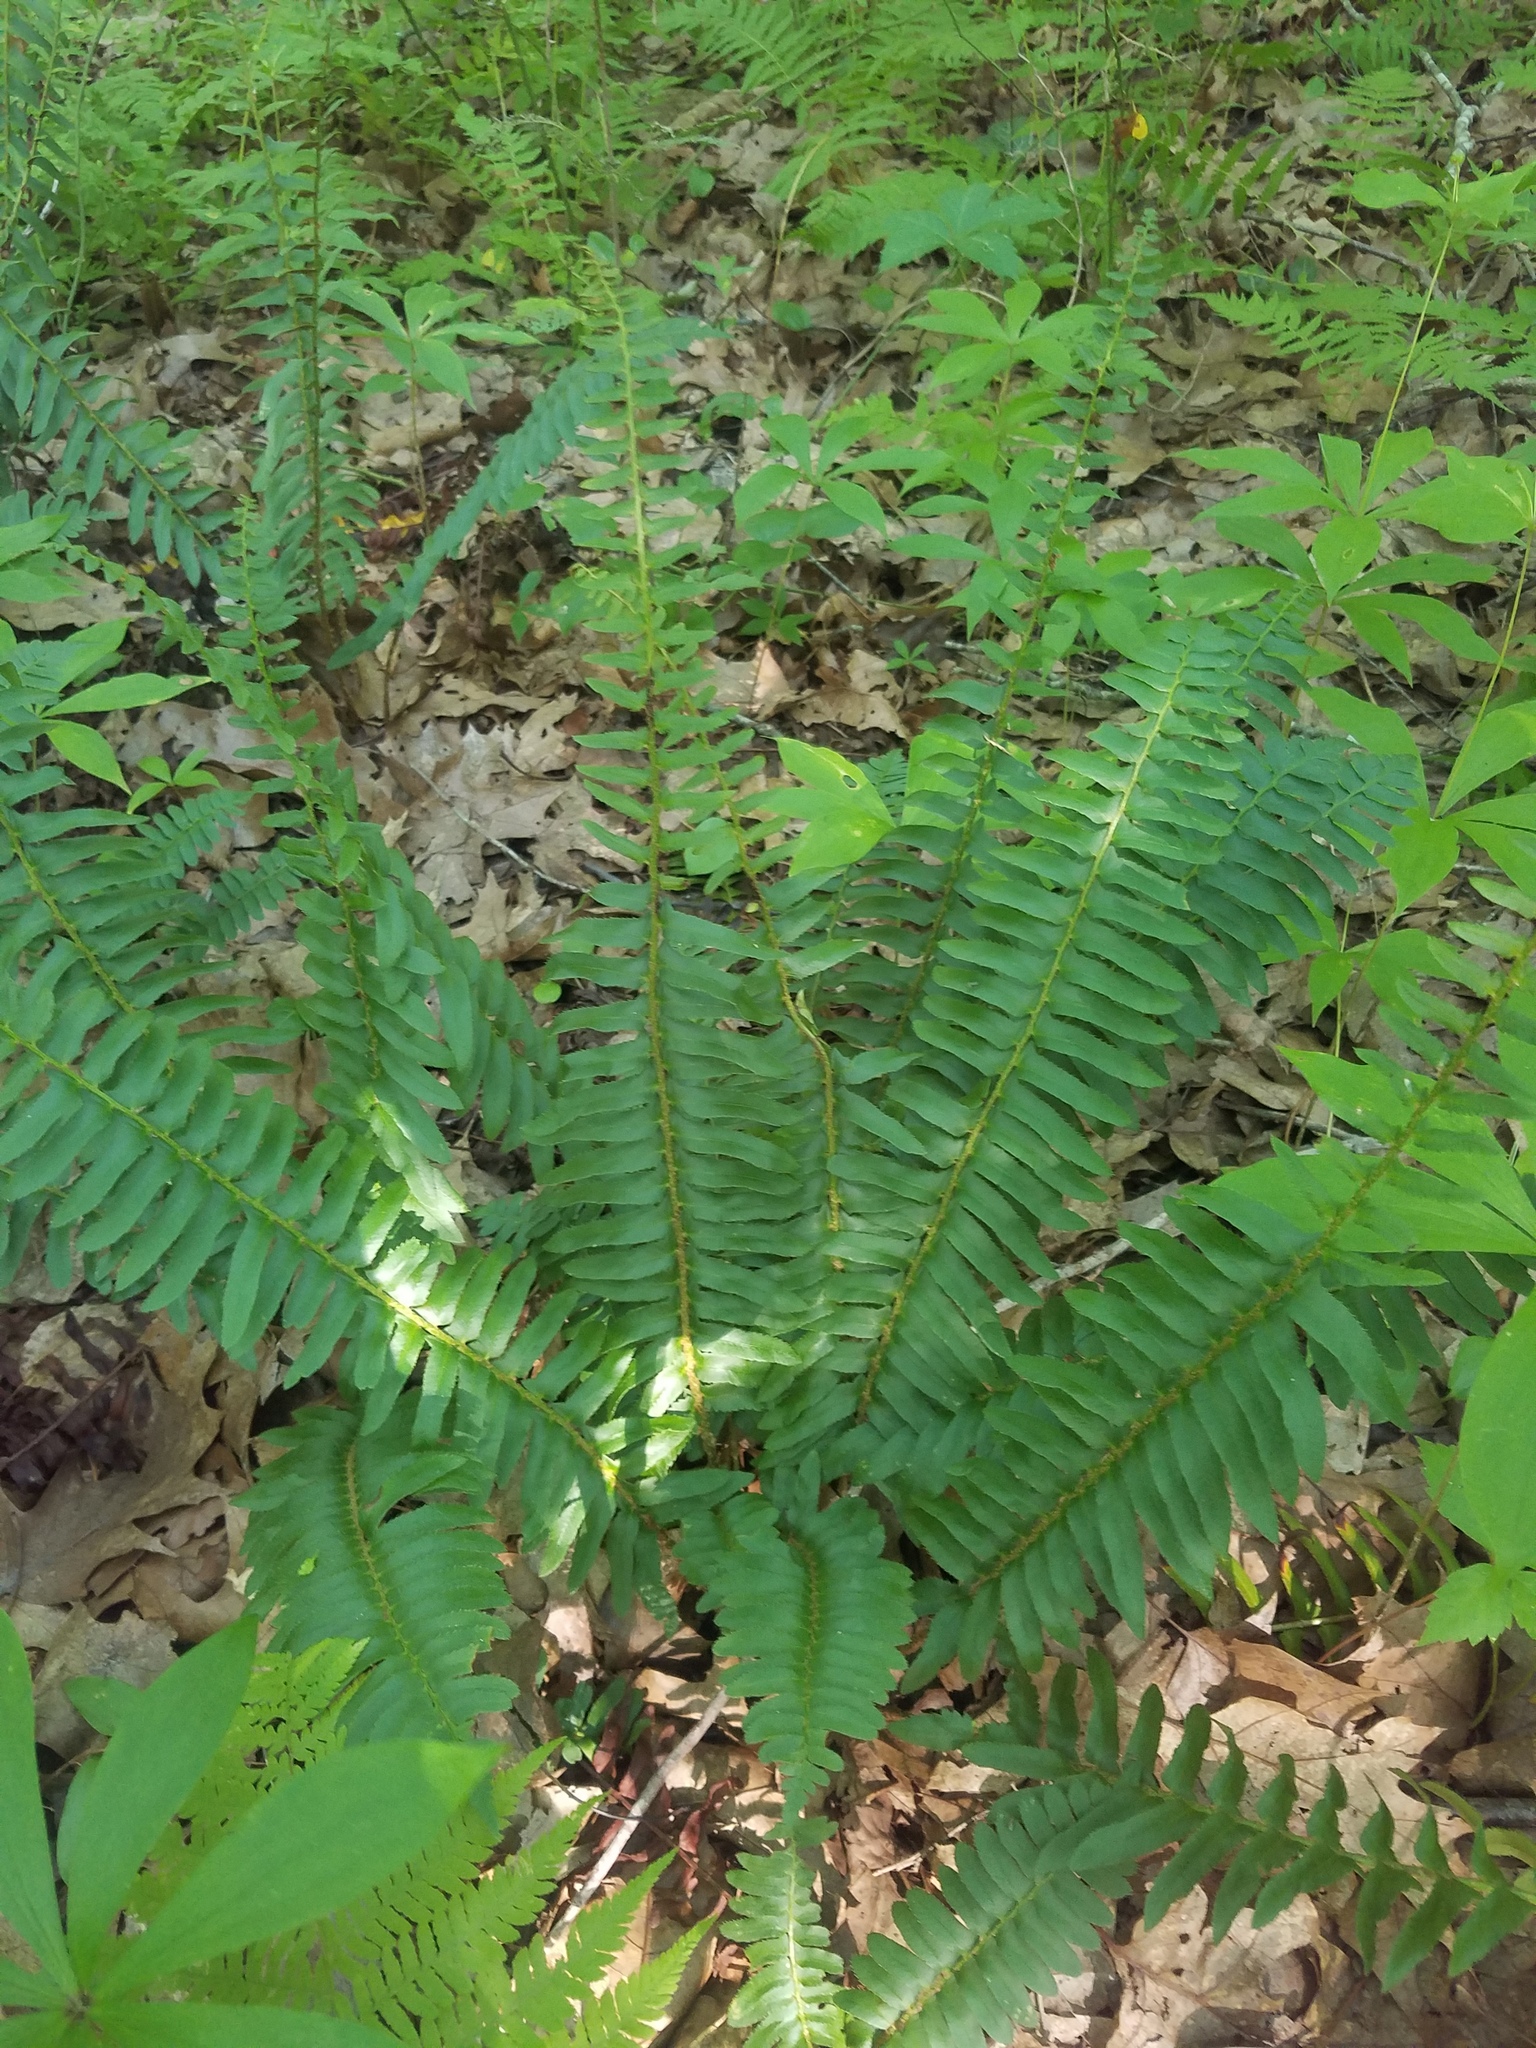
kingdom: Plantae
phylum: Tracheophyta
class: Polypodiopsida
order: Polypodiales
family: Dryopteridaceae
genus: Polystichum
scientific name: Polystichum acrostichoides
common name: Christmas fern
